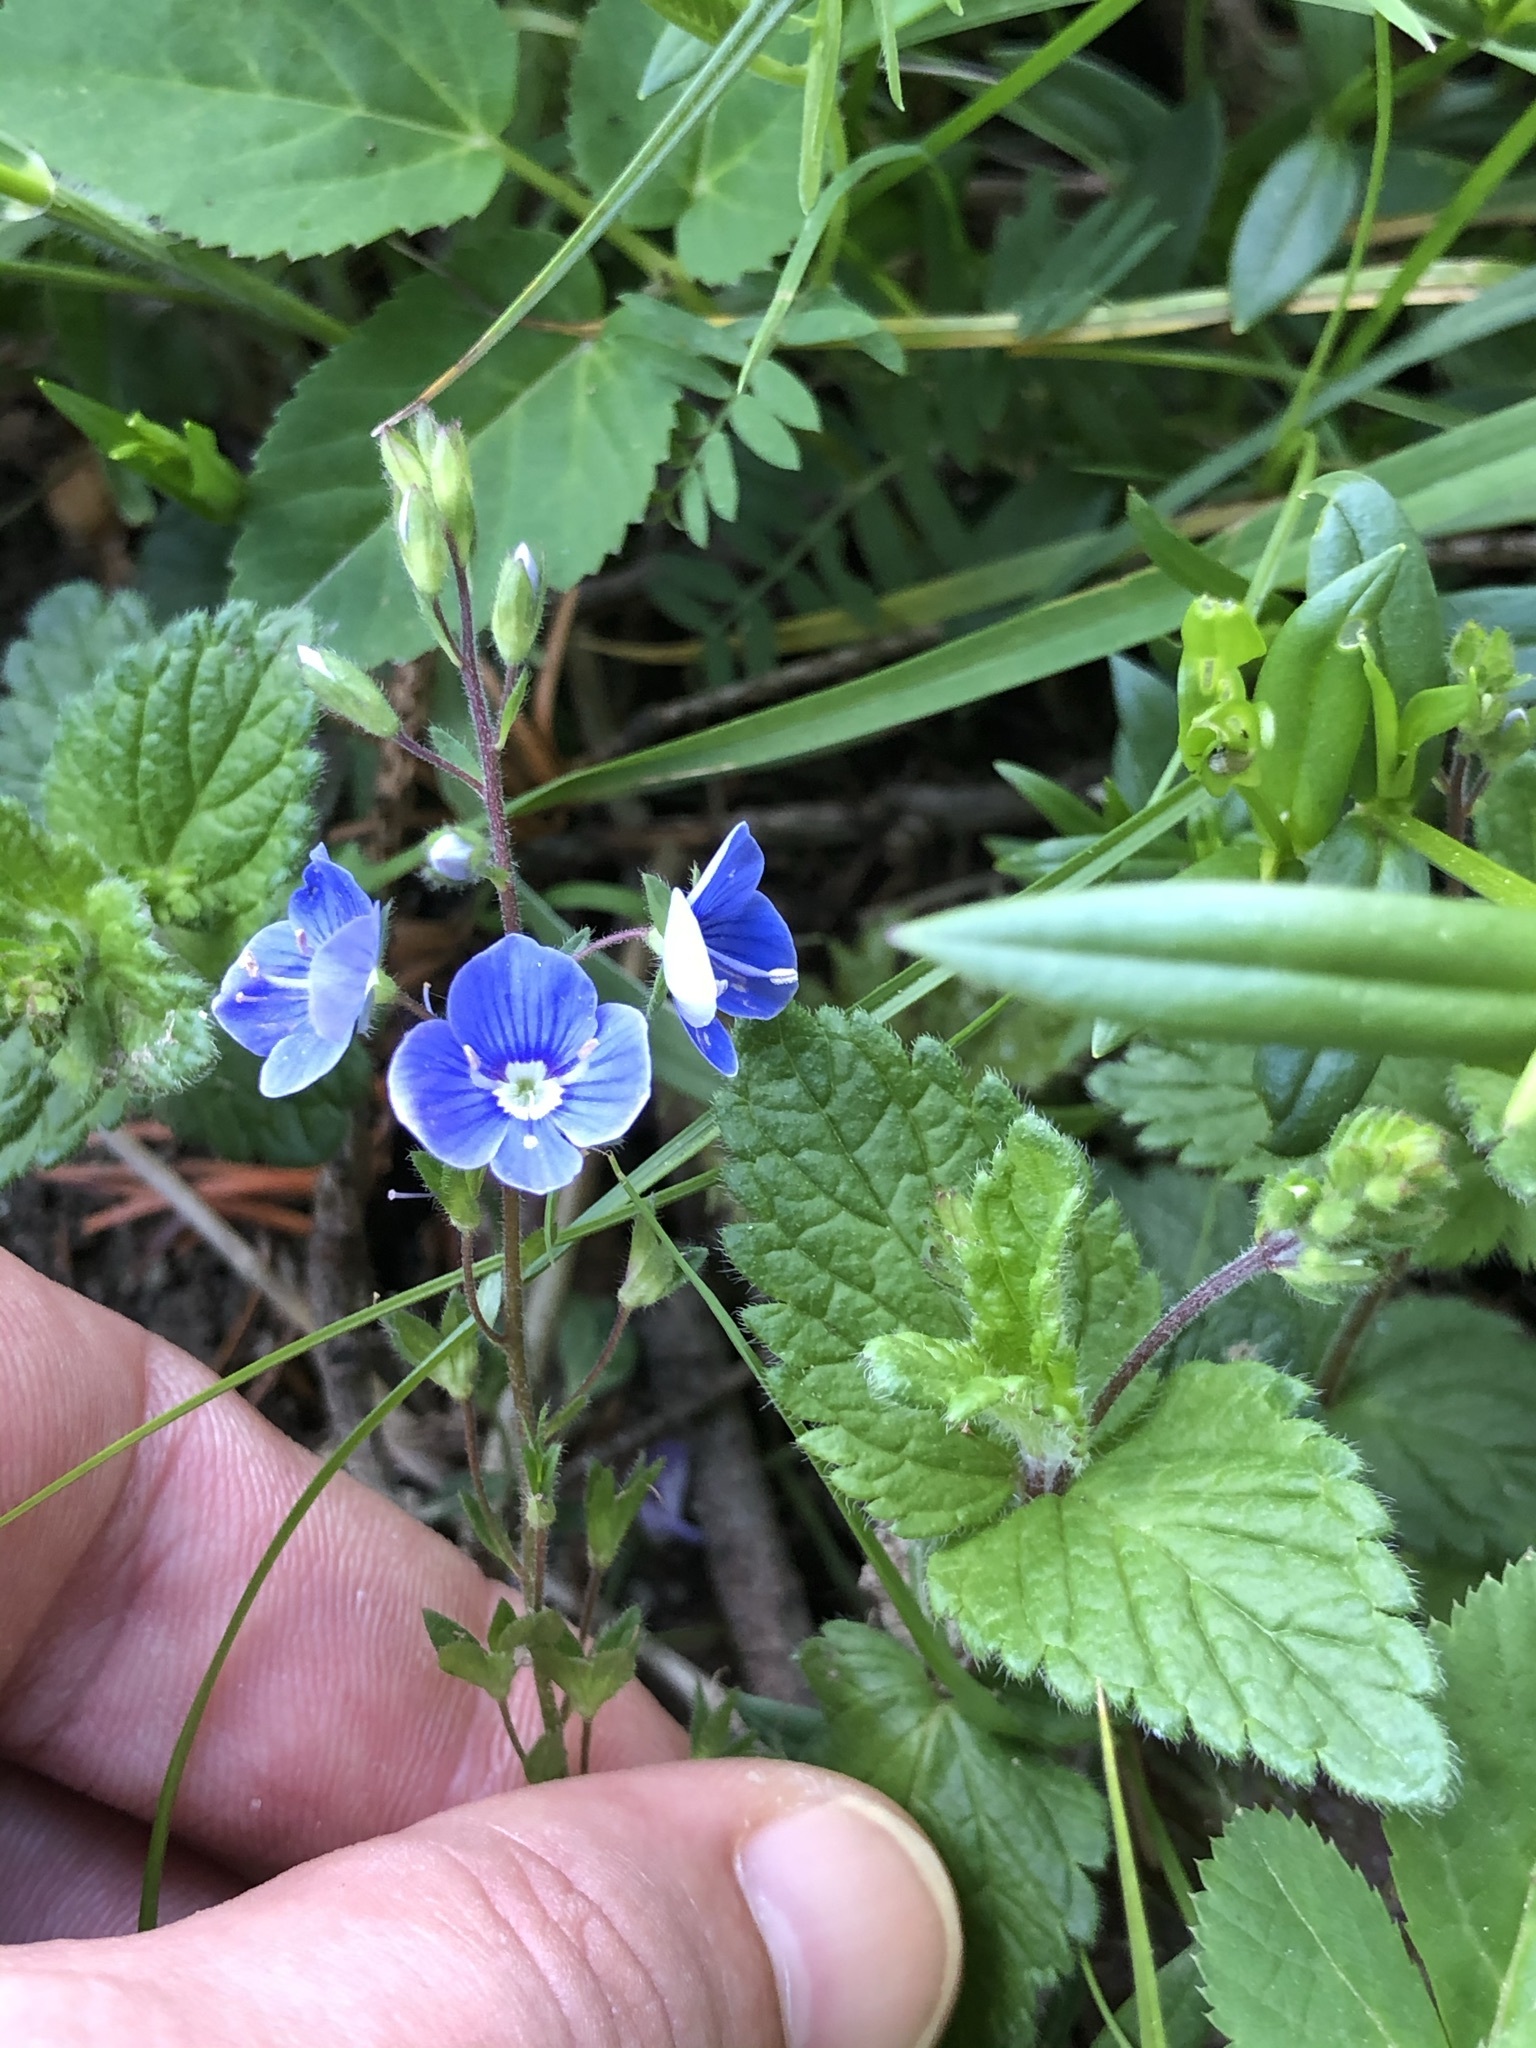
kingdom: Plantae
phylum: Tracheophyta
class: Magnoliopsida
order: Lamiales
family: Plantaginaceae
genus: Veronica
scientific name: Veronica chamaedrys
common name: Germander speedwell
